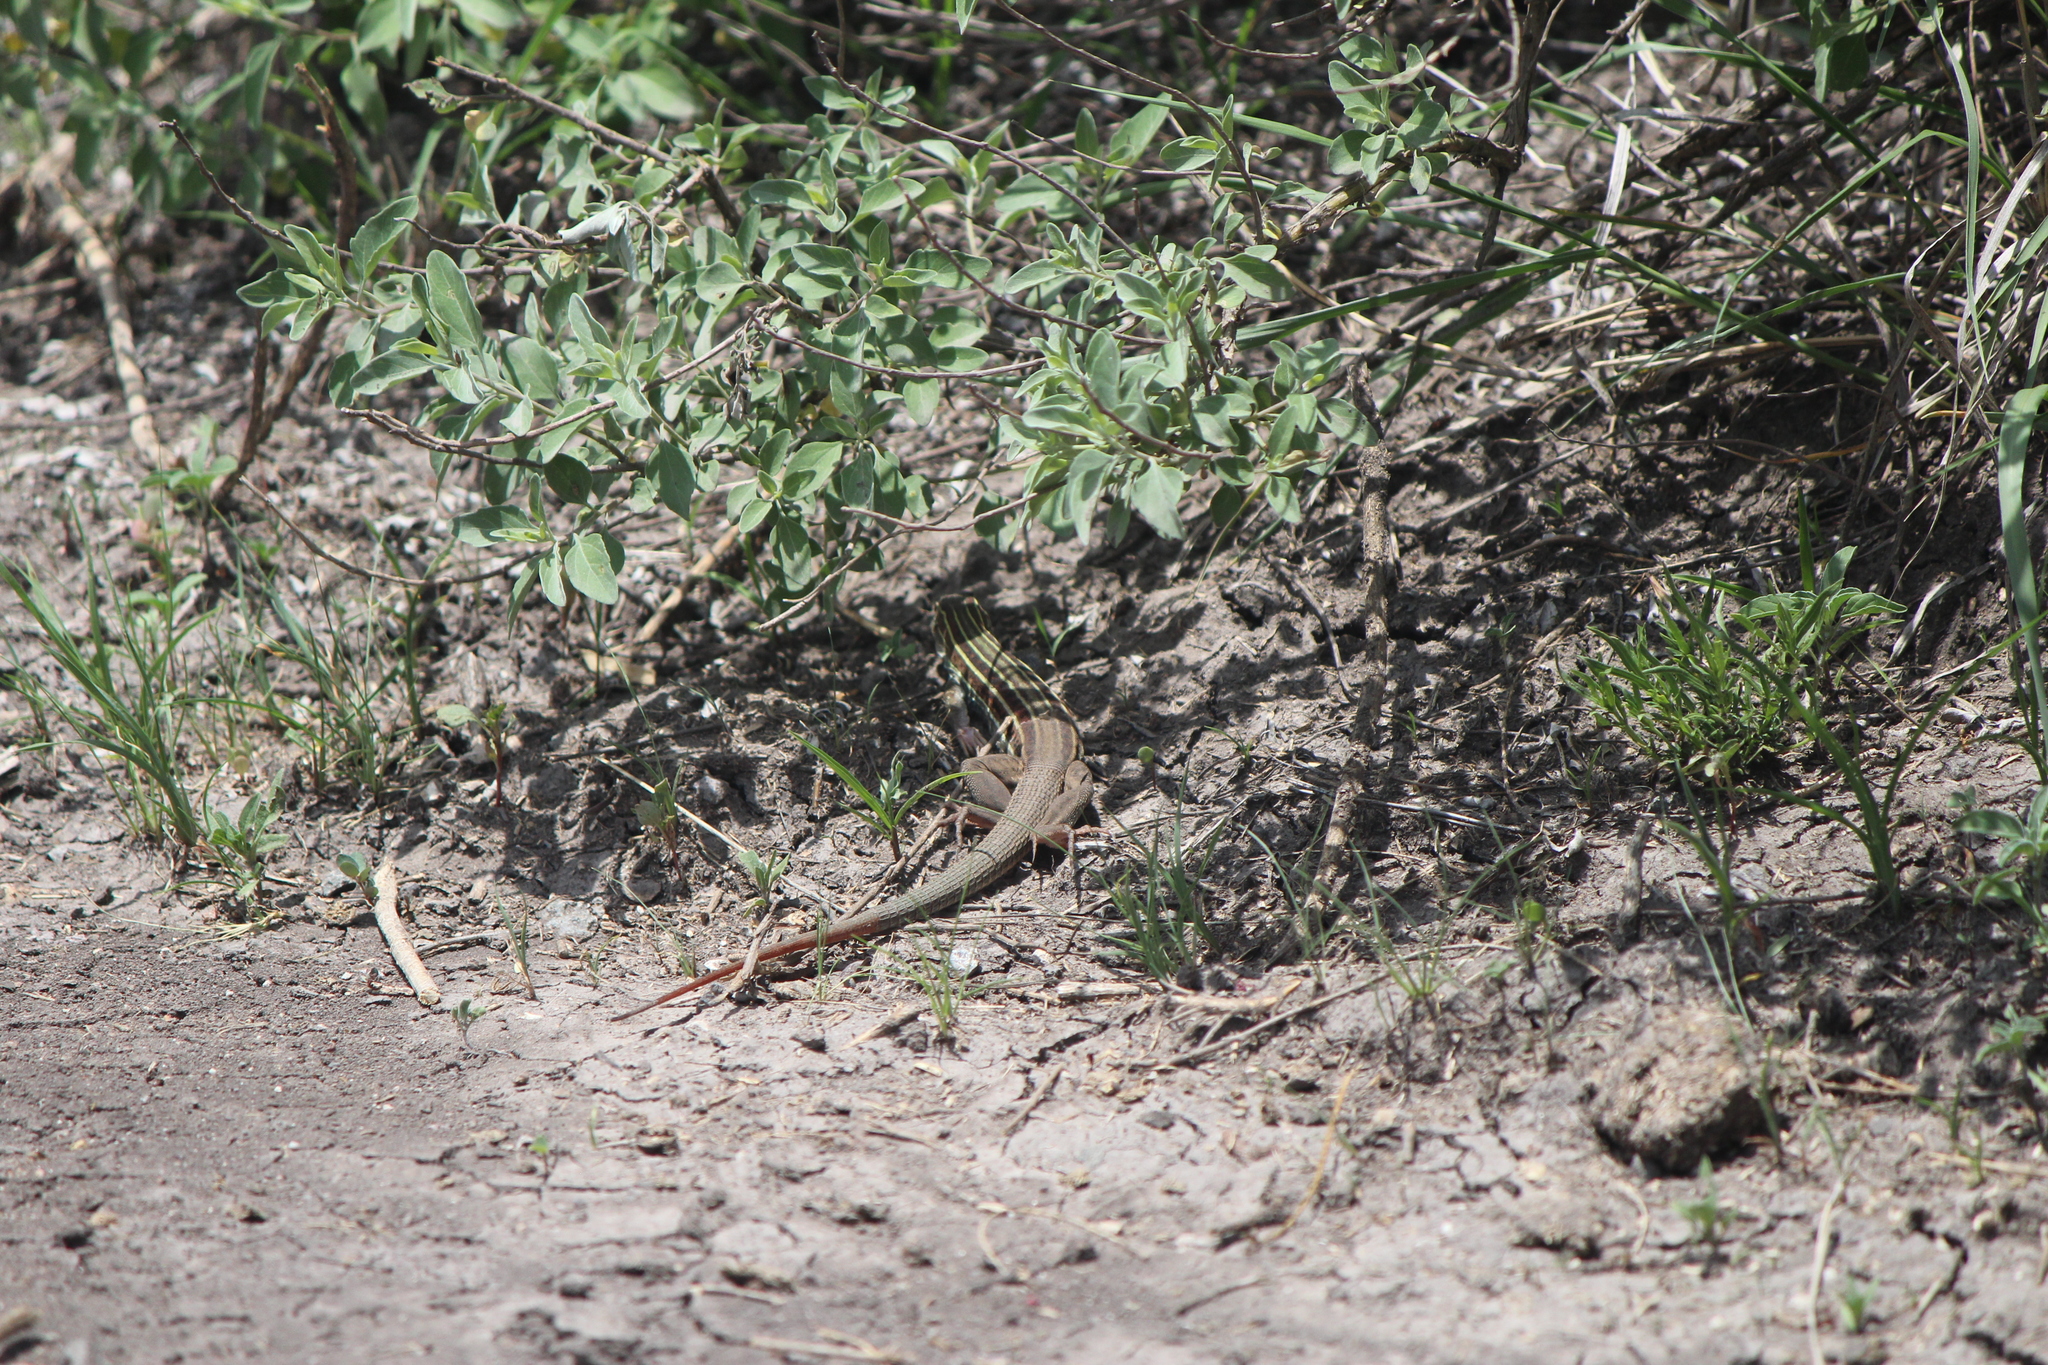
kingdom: Animalia
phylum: Chordata
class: Squamata
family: Teiidae
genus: Aspidoscelis
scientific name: Aspidoscelis gularis
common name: Eastern spotted whiptail
